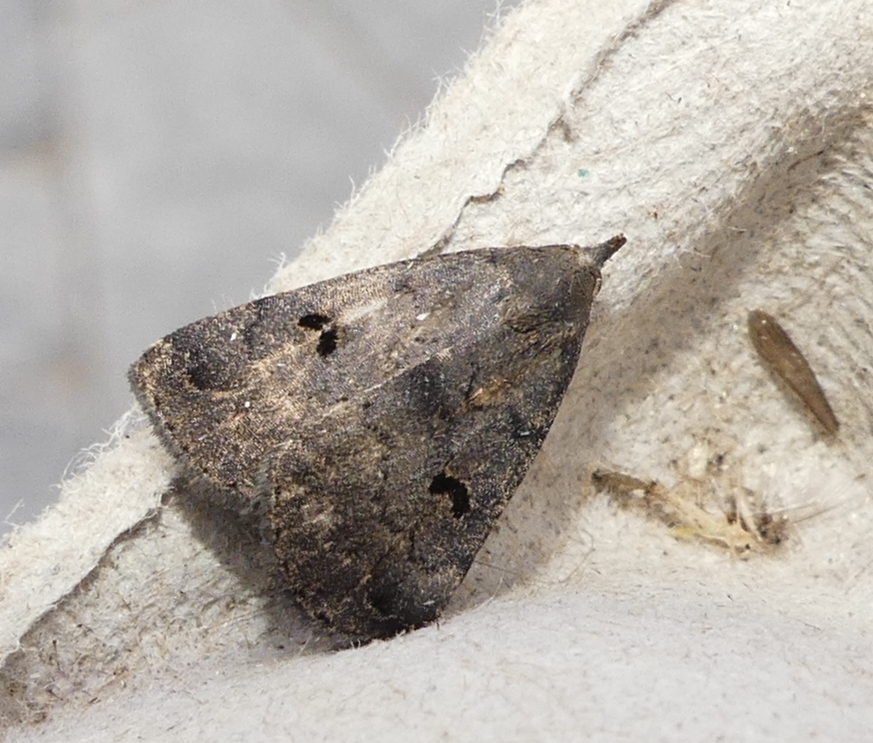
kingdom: Animalia
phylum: Arthropoda
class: Insecta
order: Lepidoptera
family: Erebidae
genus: Phalaenostola
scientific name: Phalaenostola hanhami
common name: Hanham's owlet
